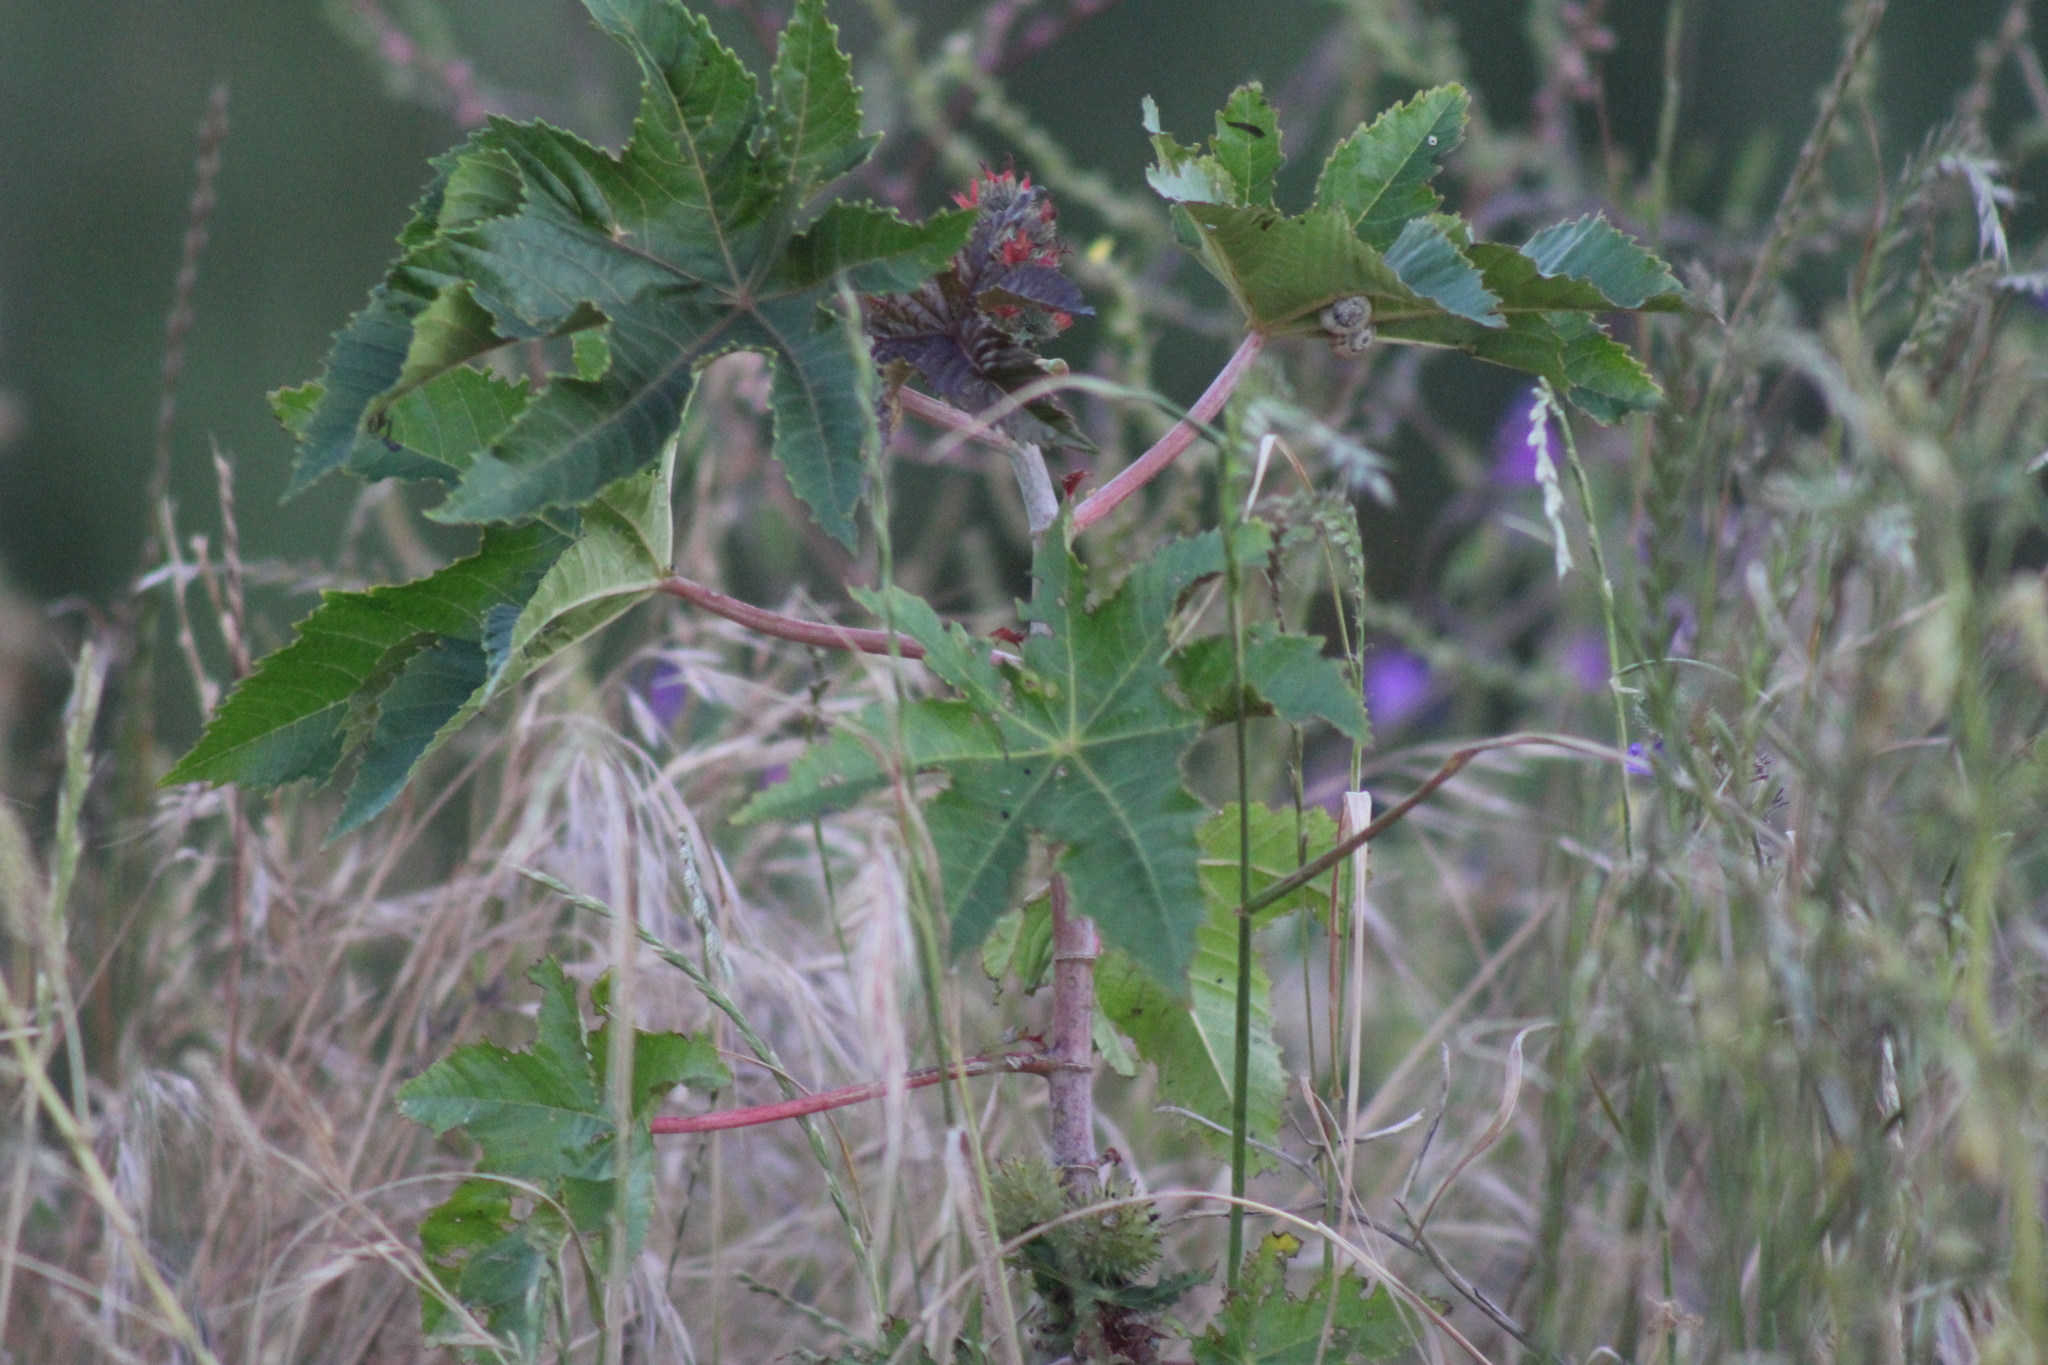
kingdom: Plantae
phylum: Tracheophyta
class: Magnoliopsida
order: Malpighiales
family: Euphorbiaceae
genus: Ricinus
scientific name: Ricinus communis
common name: Castor-oil-plant
